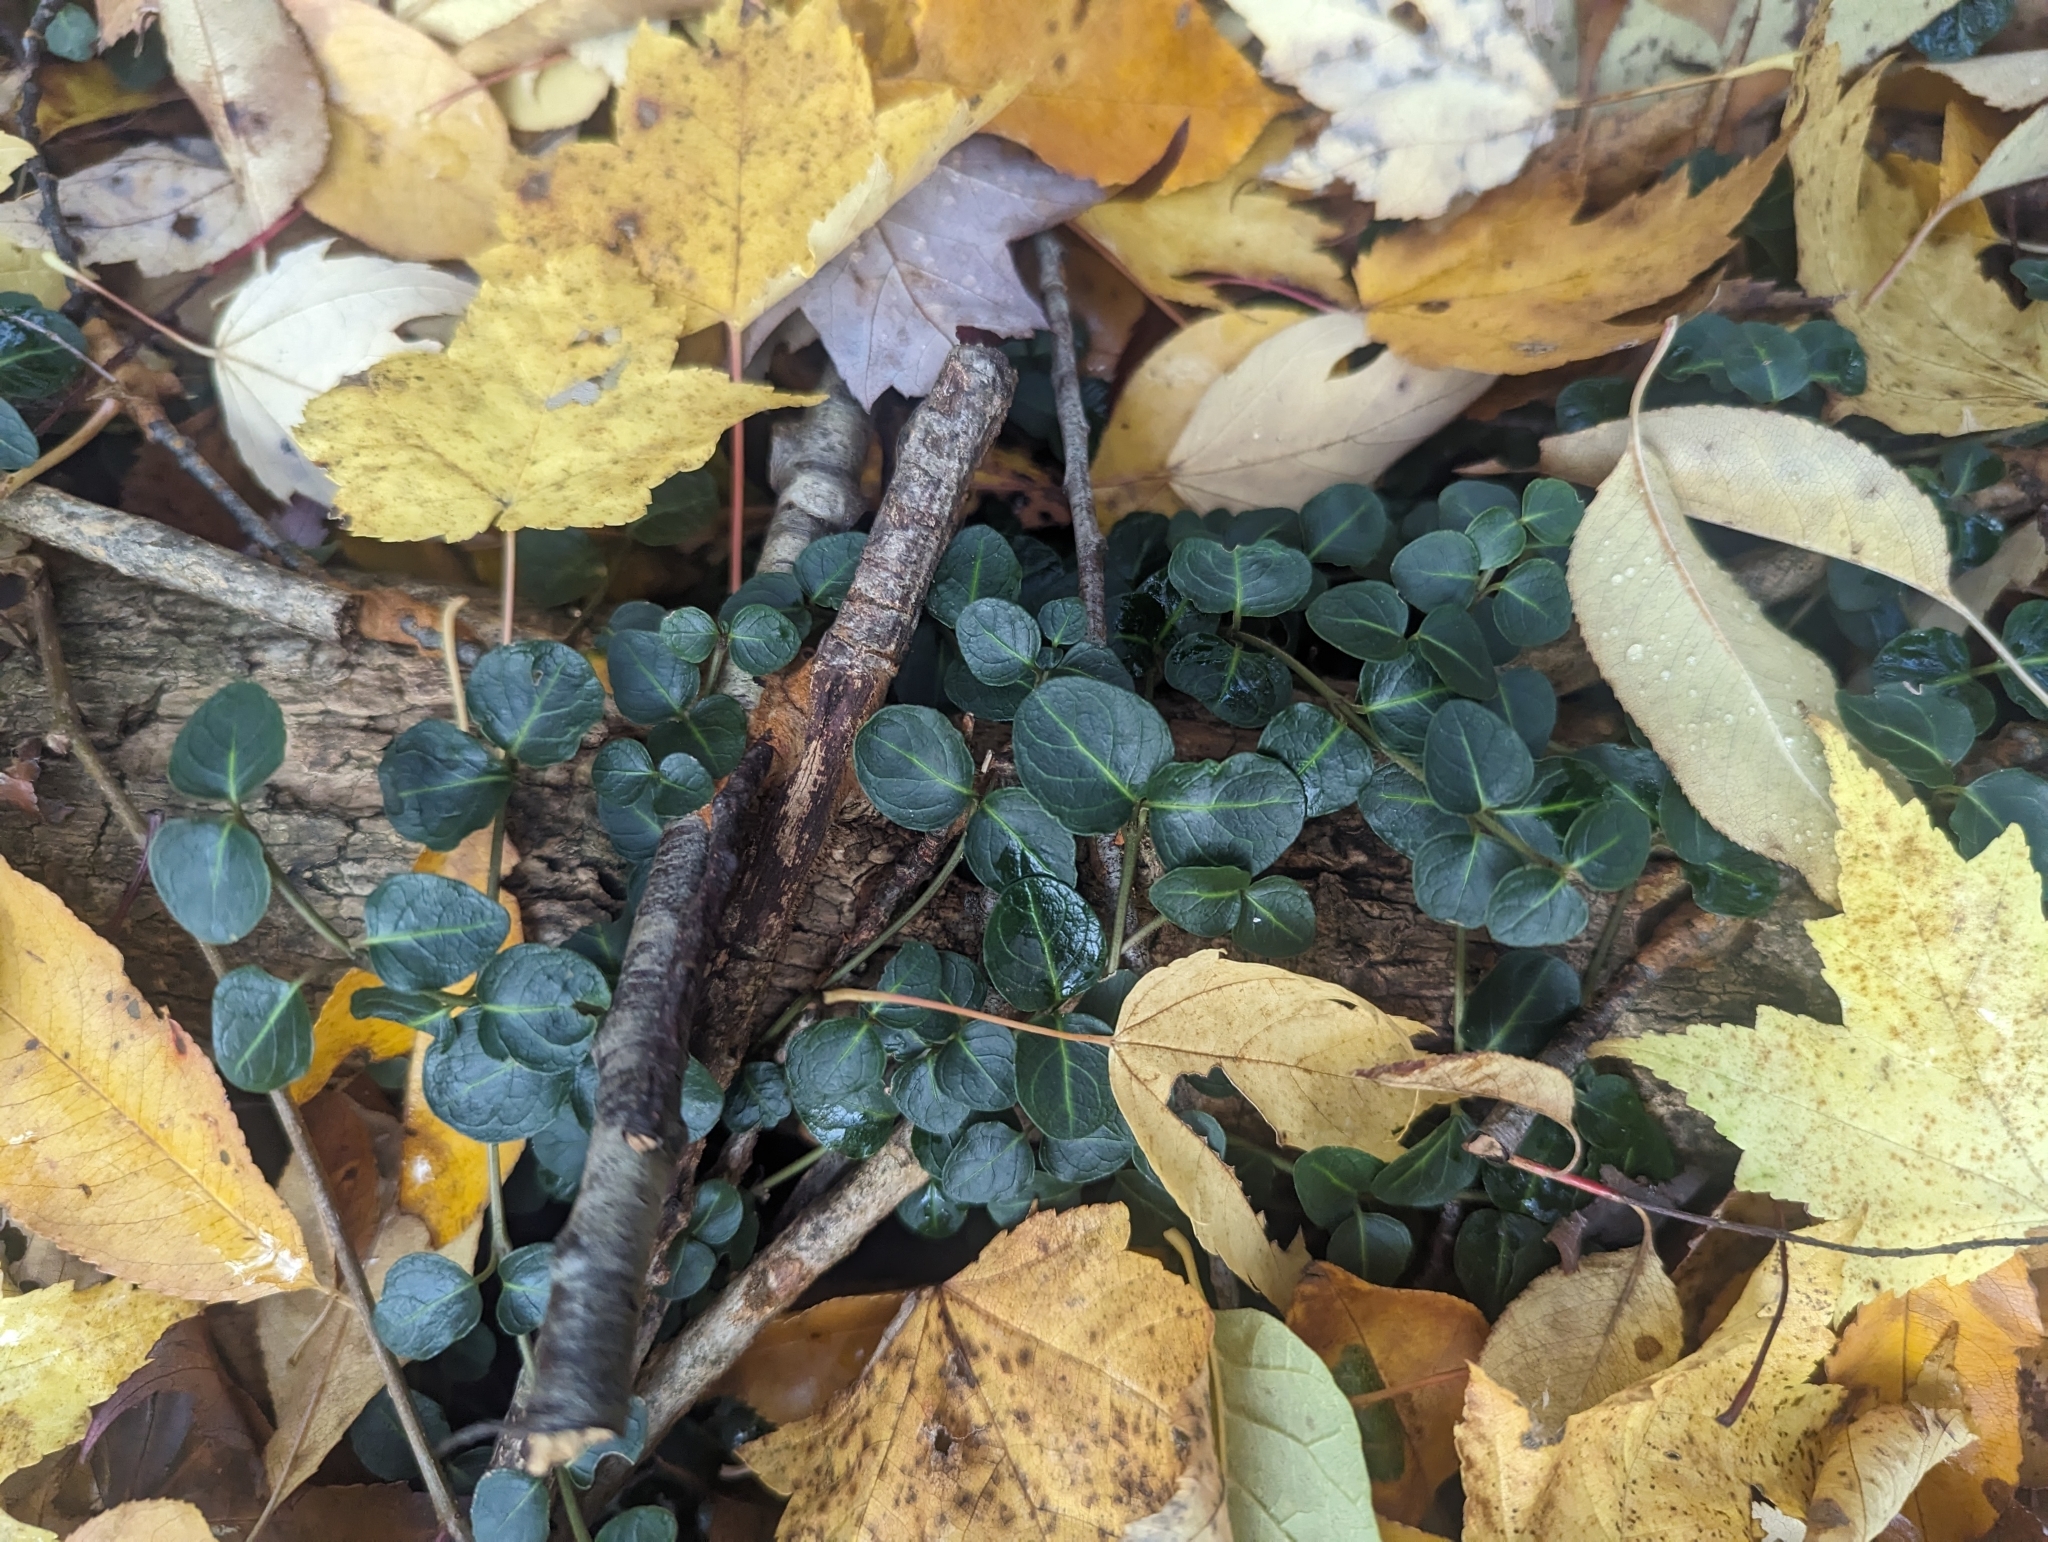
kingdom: Plantae
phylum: Tracheophyta
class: Magnoliopsida
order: Gentianales
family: Rubiaceae
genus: Mitchella
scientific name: Mitchella repens
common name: Partridge-berry
